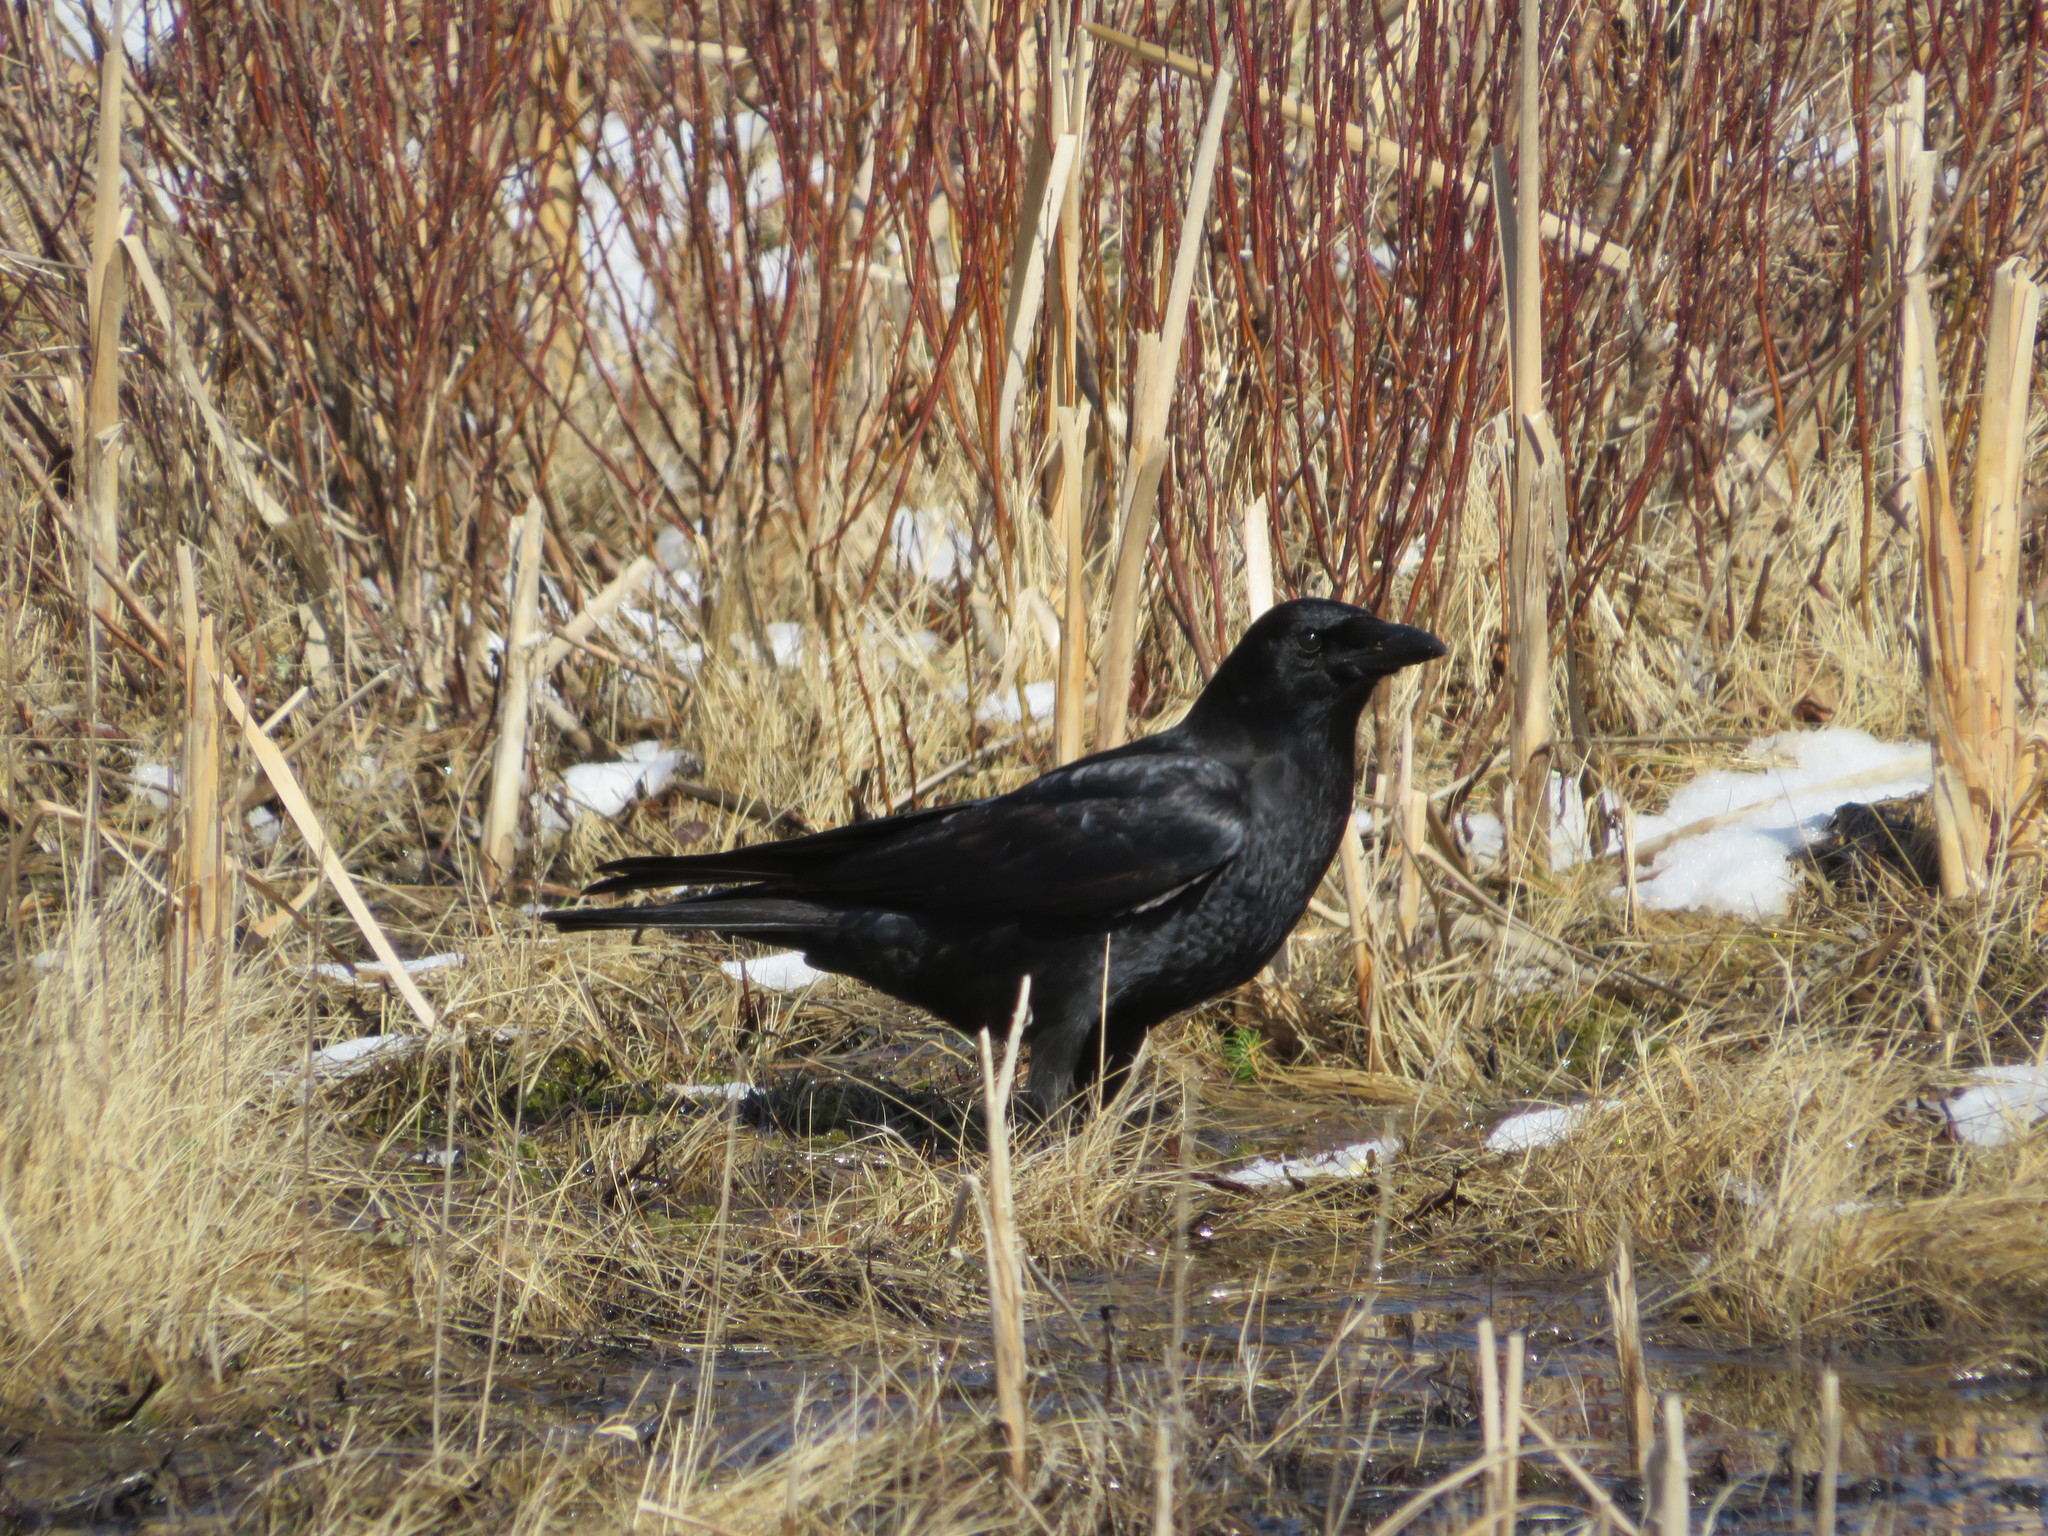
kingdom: Animalia
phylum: Chordata
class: Aves
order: Passeriformes
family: Corvidae
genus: Corvus
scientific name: Corvus brachyrhynchos
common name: American crow
